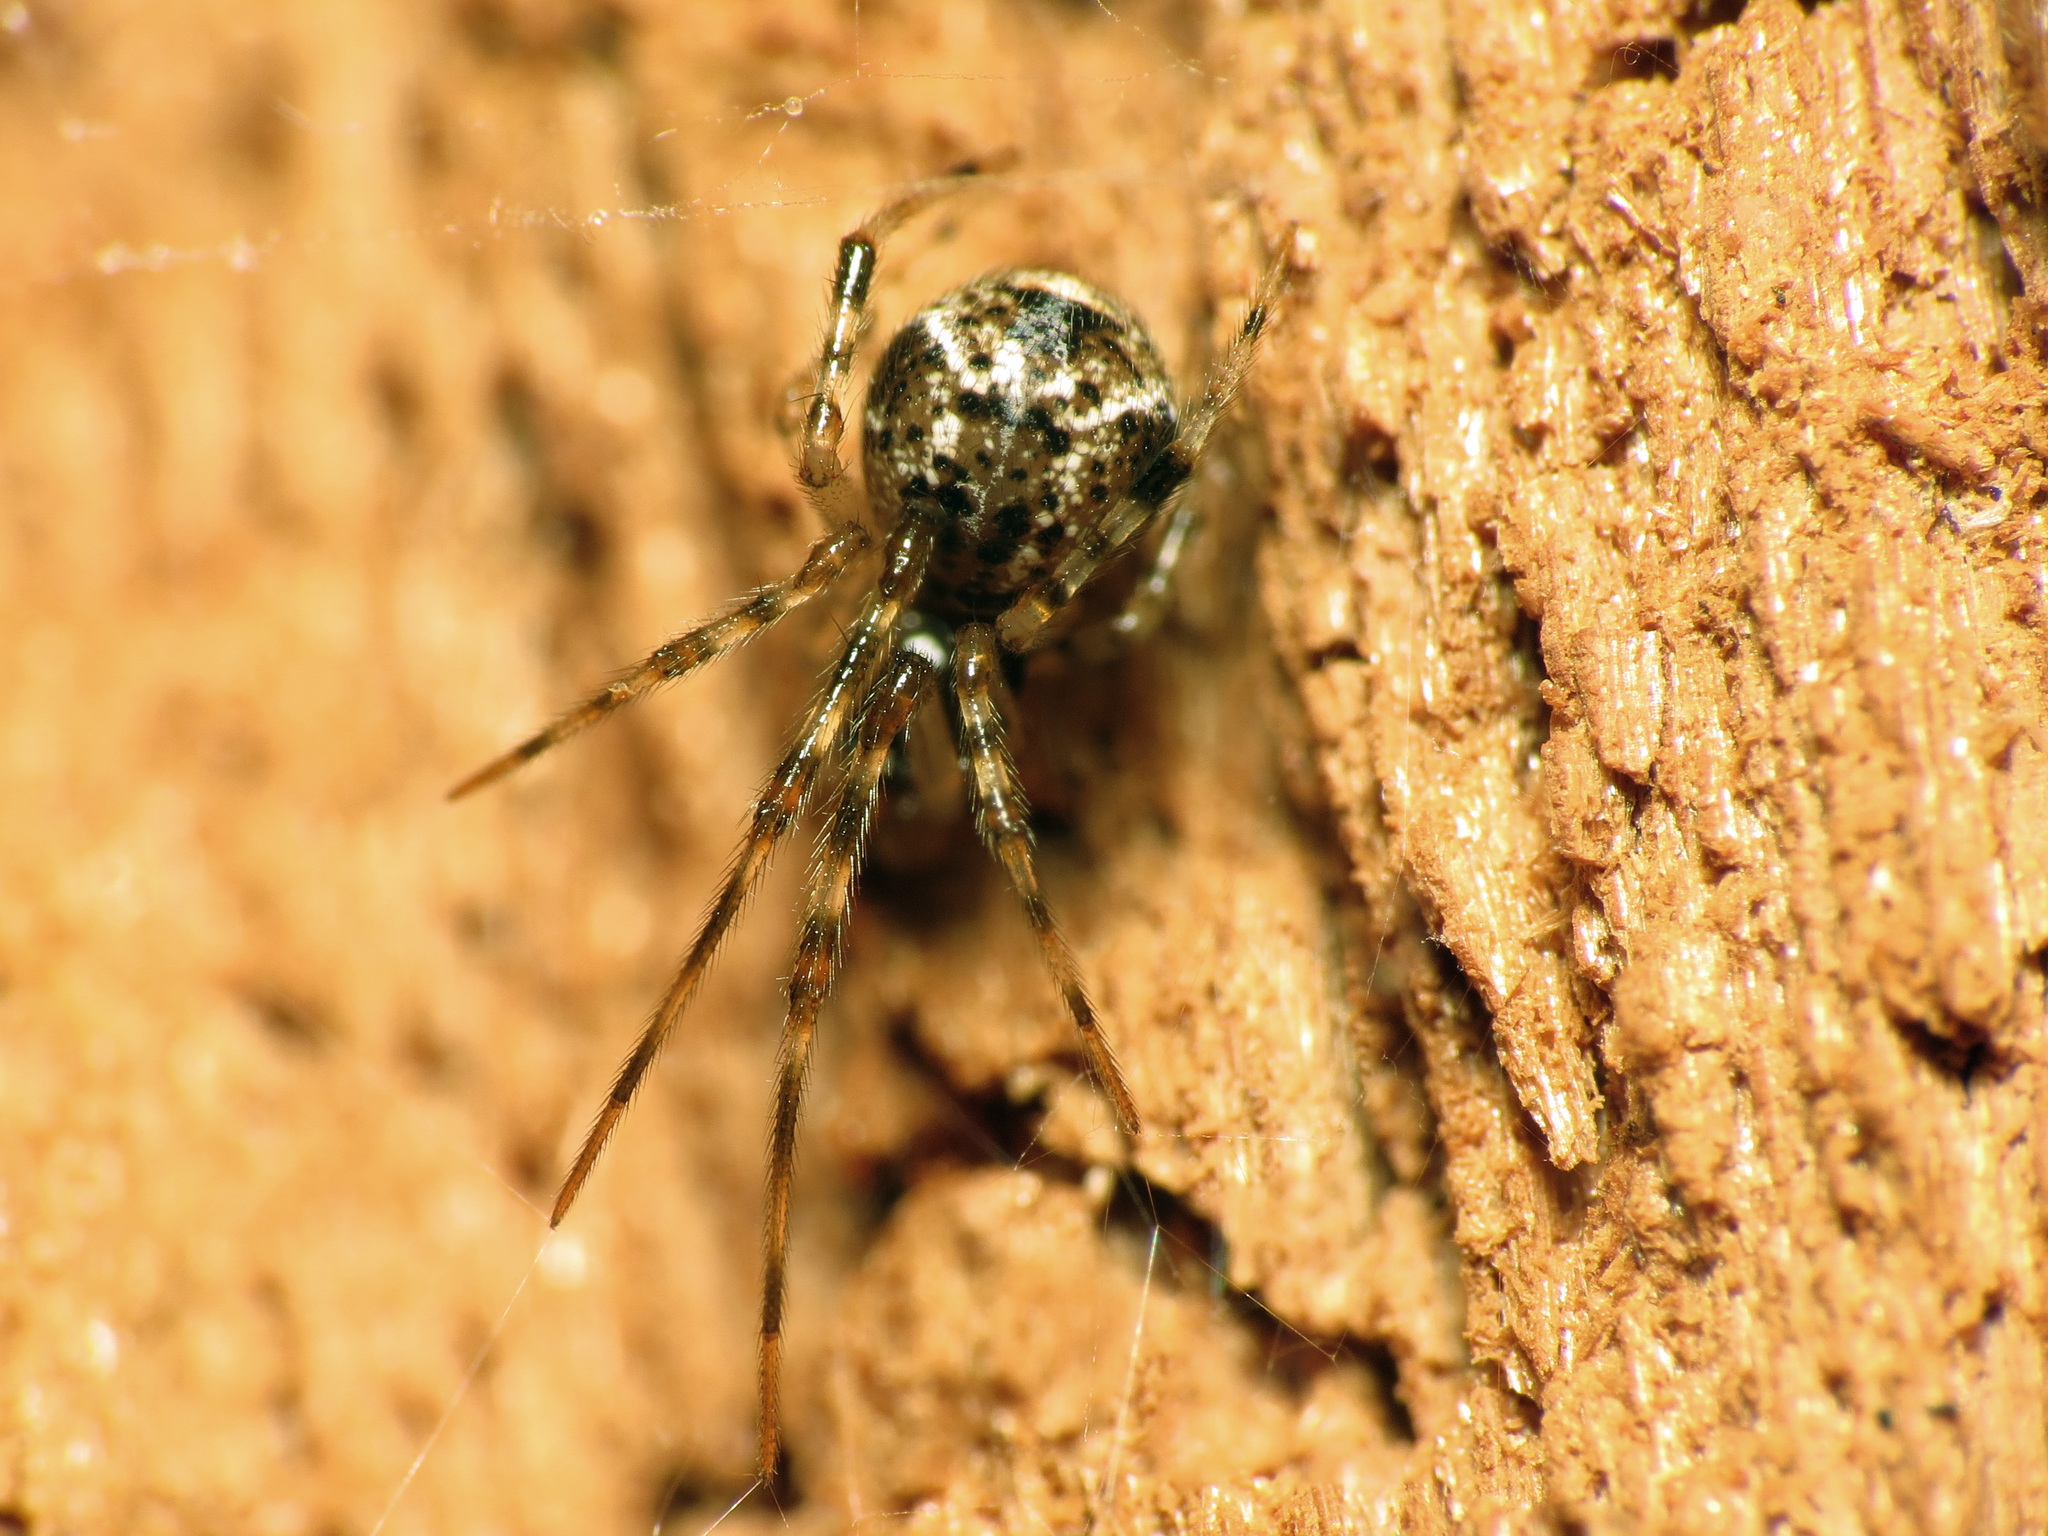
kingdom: Animalia
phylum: Arthropoda
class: Arachnida
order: Araneae
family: Theridiidae
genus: Parasteatoda
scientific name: Parasteatoda tepidariorum
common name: Common house spider
